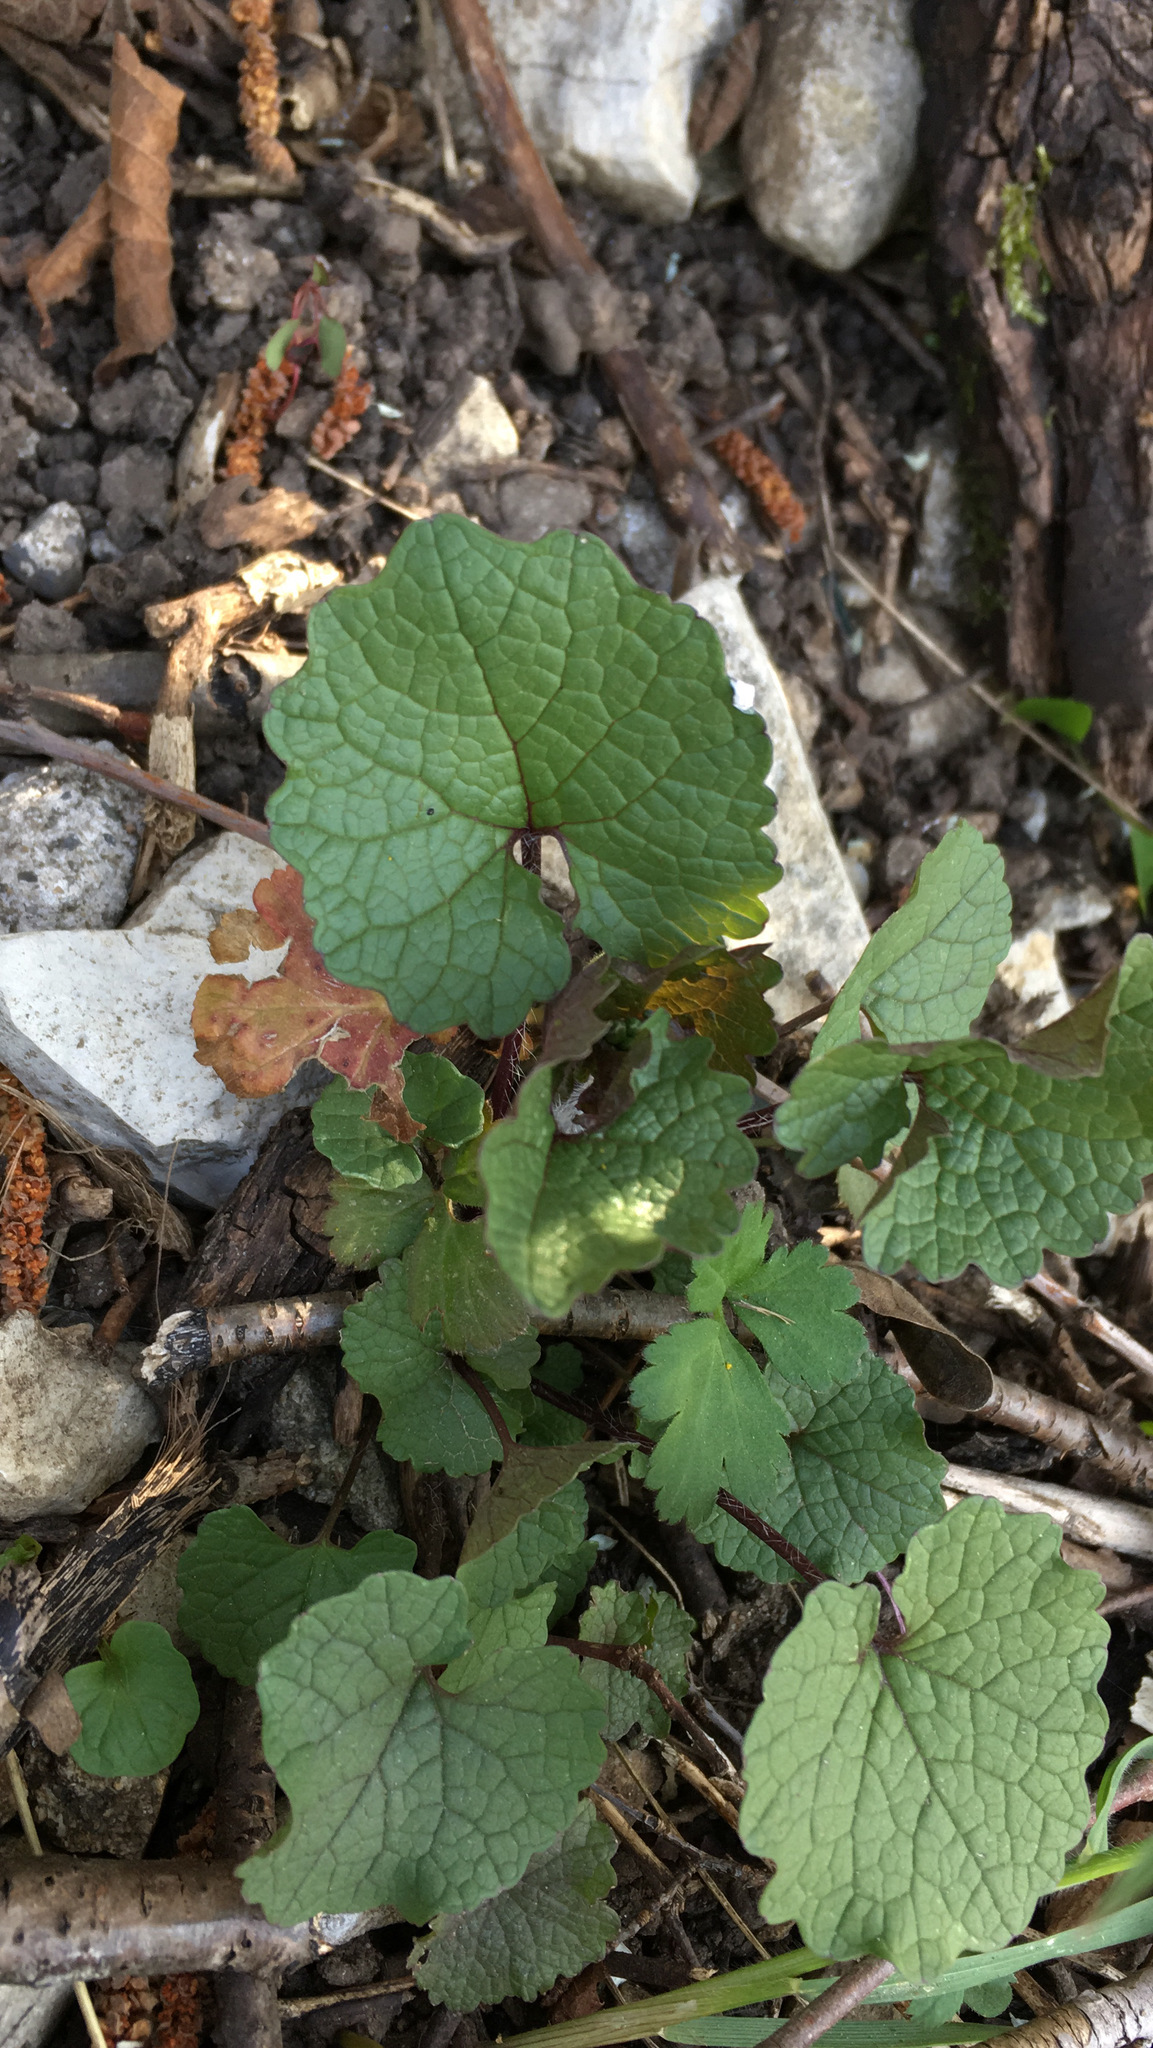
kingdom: Plantae
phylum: Tracheophyta
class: Magnoliopsida
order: Brassicales
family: Brassicaceae
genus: Alliaria
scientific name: Alliaria petiolata
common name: Garlic mustard
